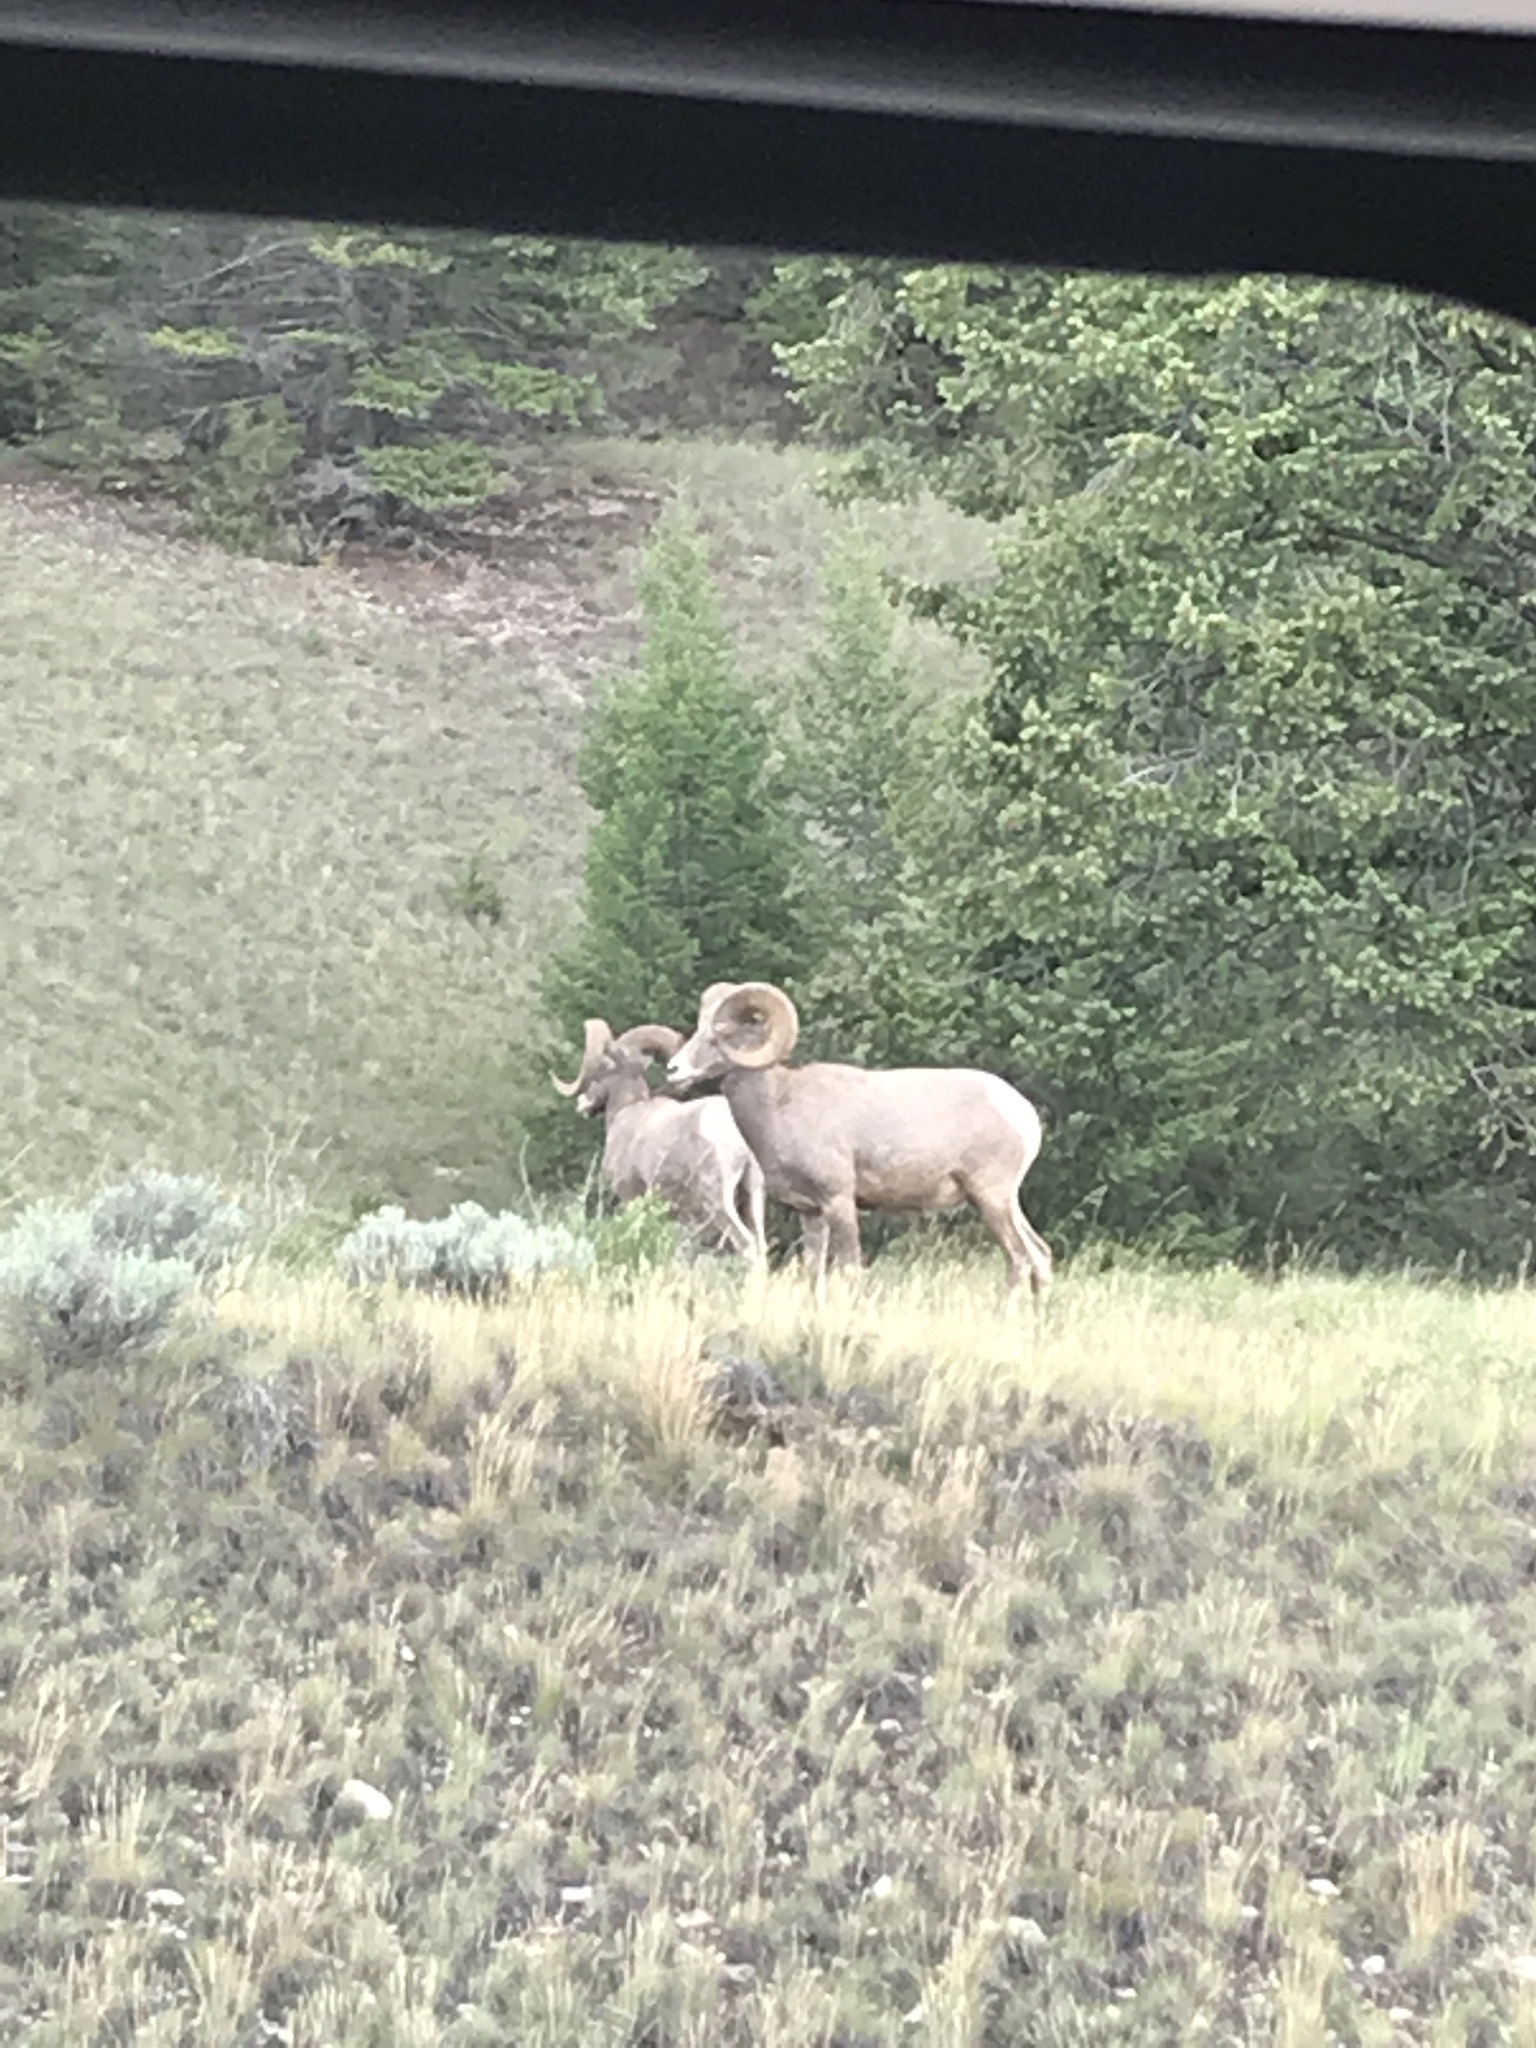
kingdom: Animalia
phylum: Chordata
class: Mammalia
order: Artiodactyla
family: Bovidae
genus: Ovis
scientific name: Ovis canadensis
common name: Bighorn sheep
